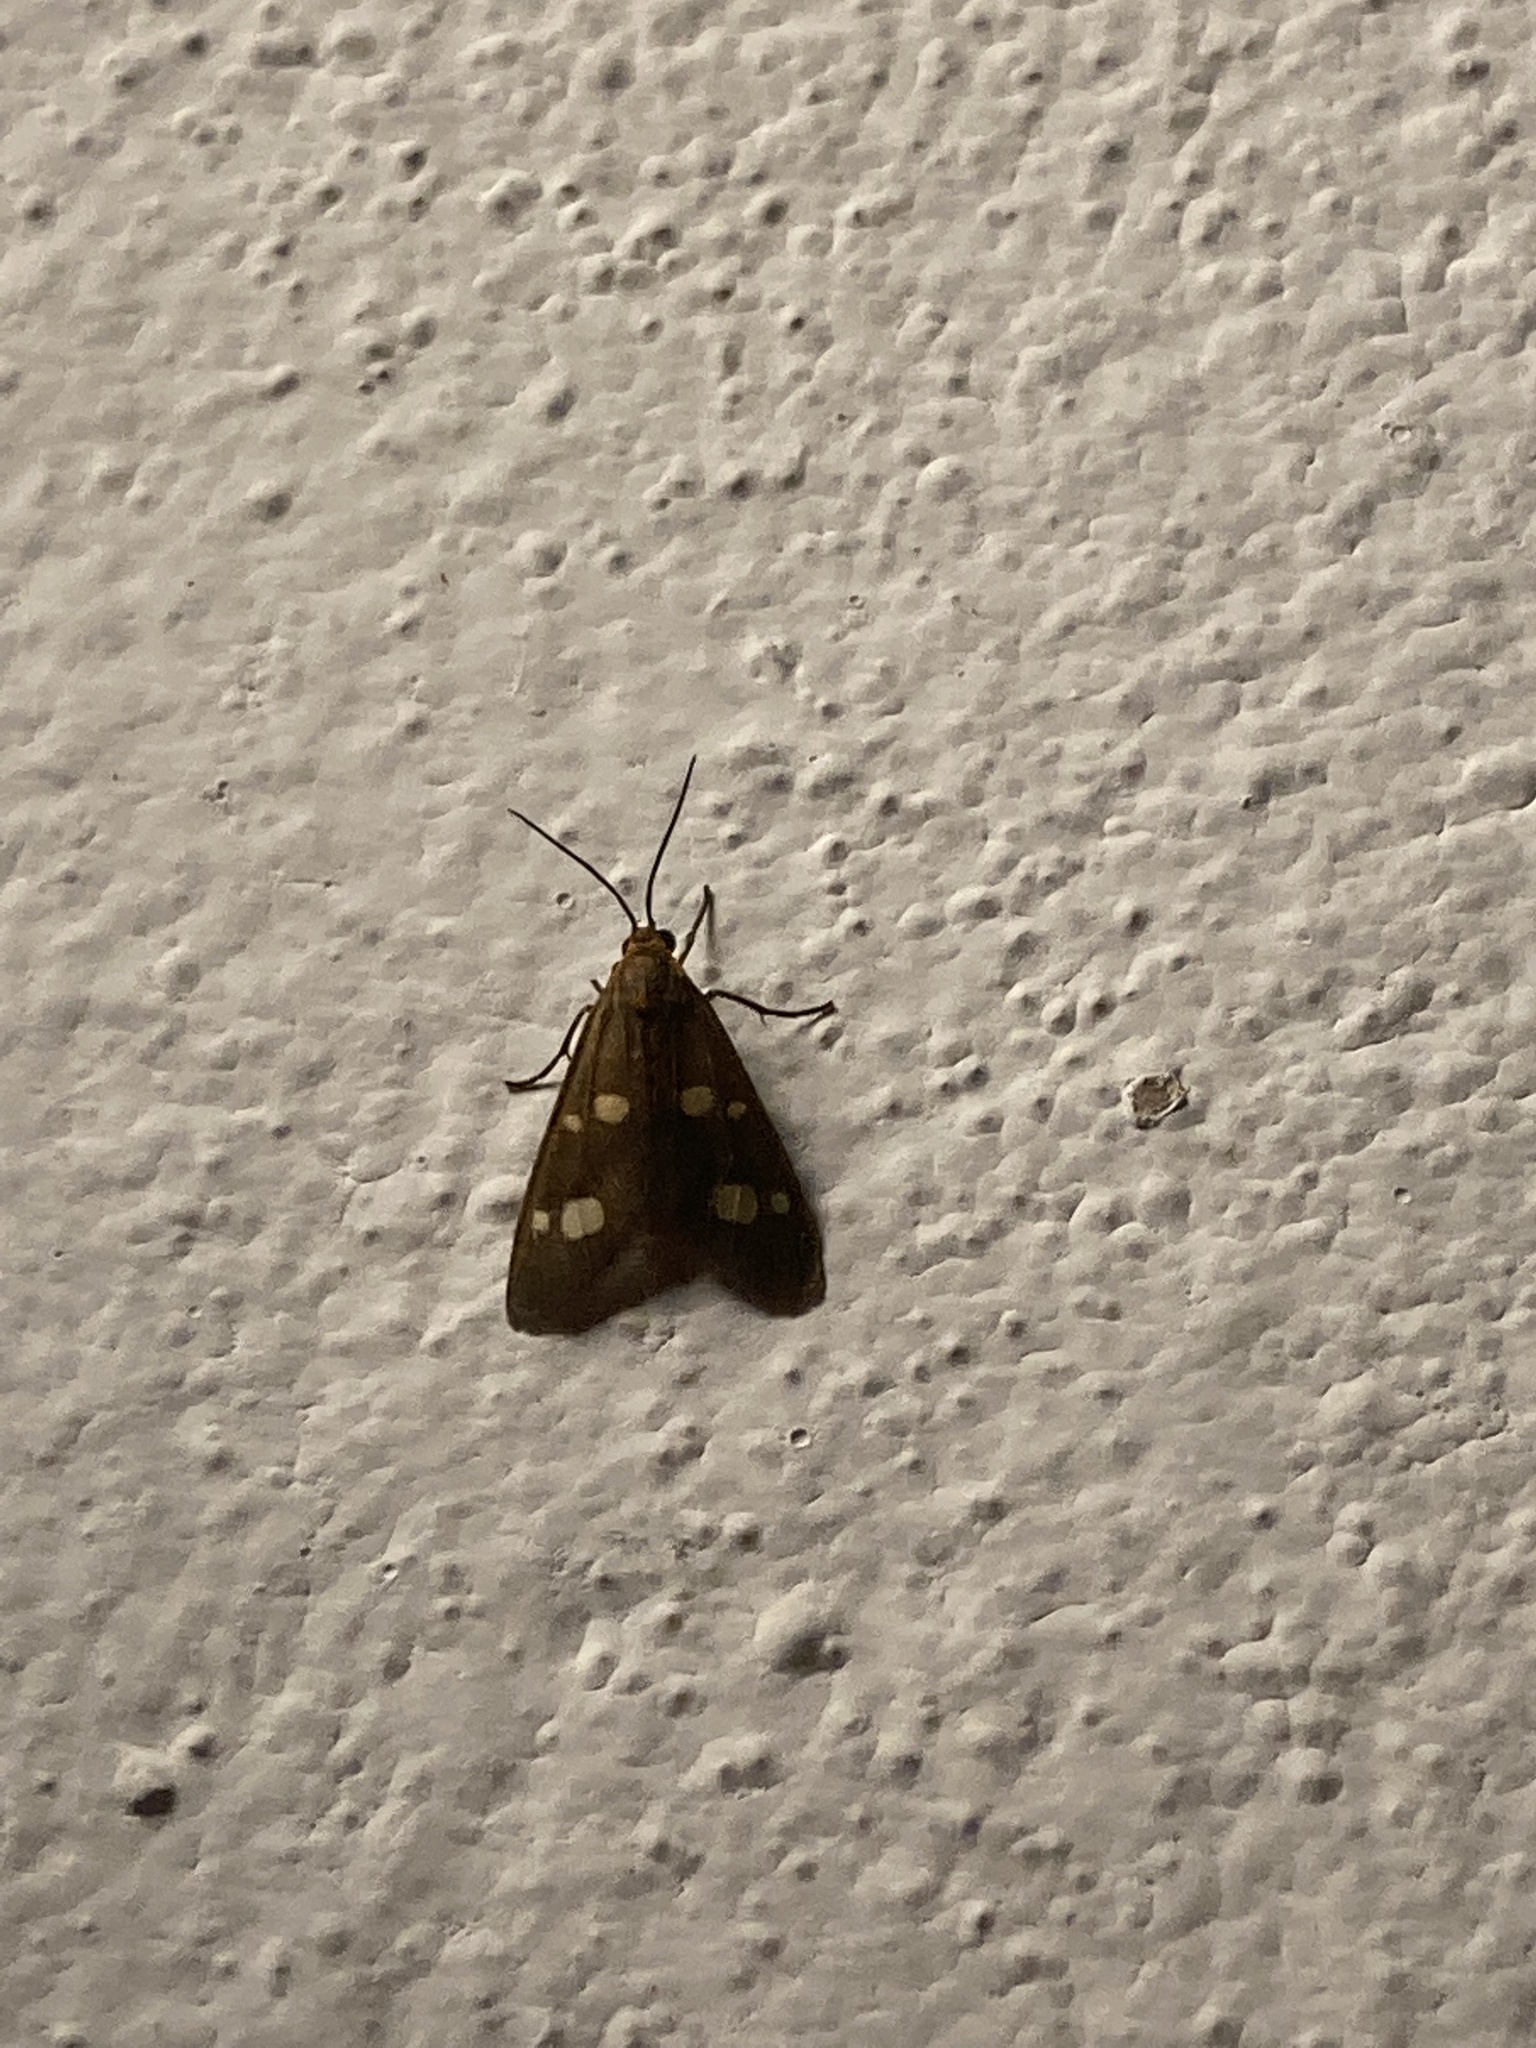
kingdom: Animalia
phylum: Arthropoda
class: Insecta
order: Lepidoptera
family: Erebidae
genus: Dysauxes
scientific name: Dysauxes punctata
